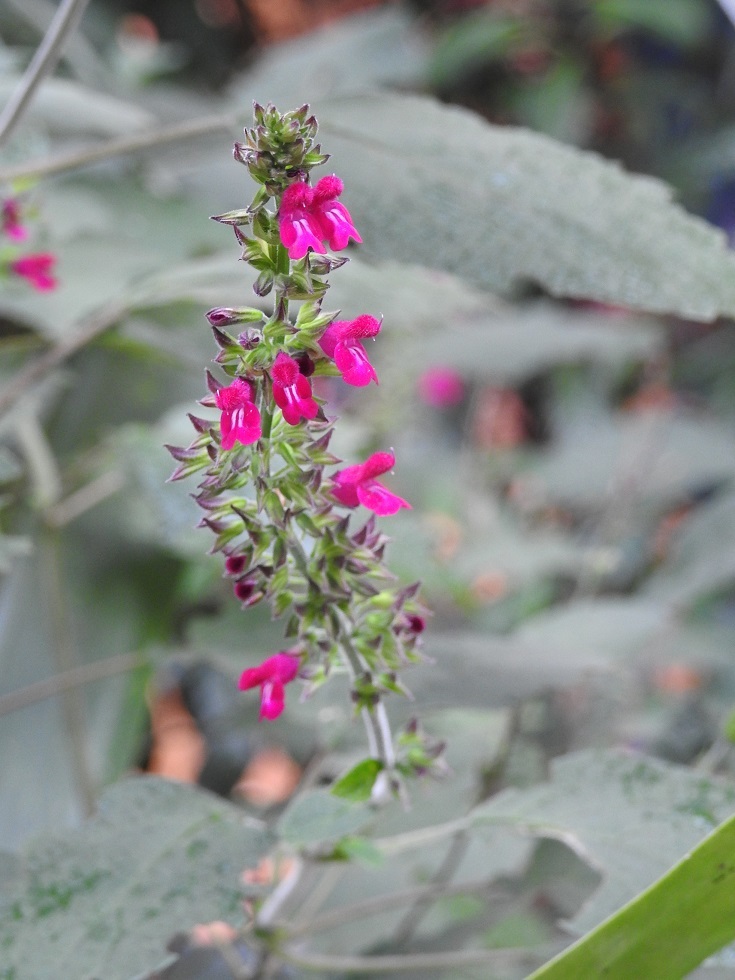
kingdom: Plantae
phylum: Tracheophyta
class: Magnoliopsida
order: Lamiales
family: Lamiaceae
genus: Salvia
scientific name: Salvia chiapensis
